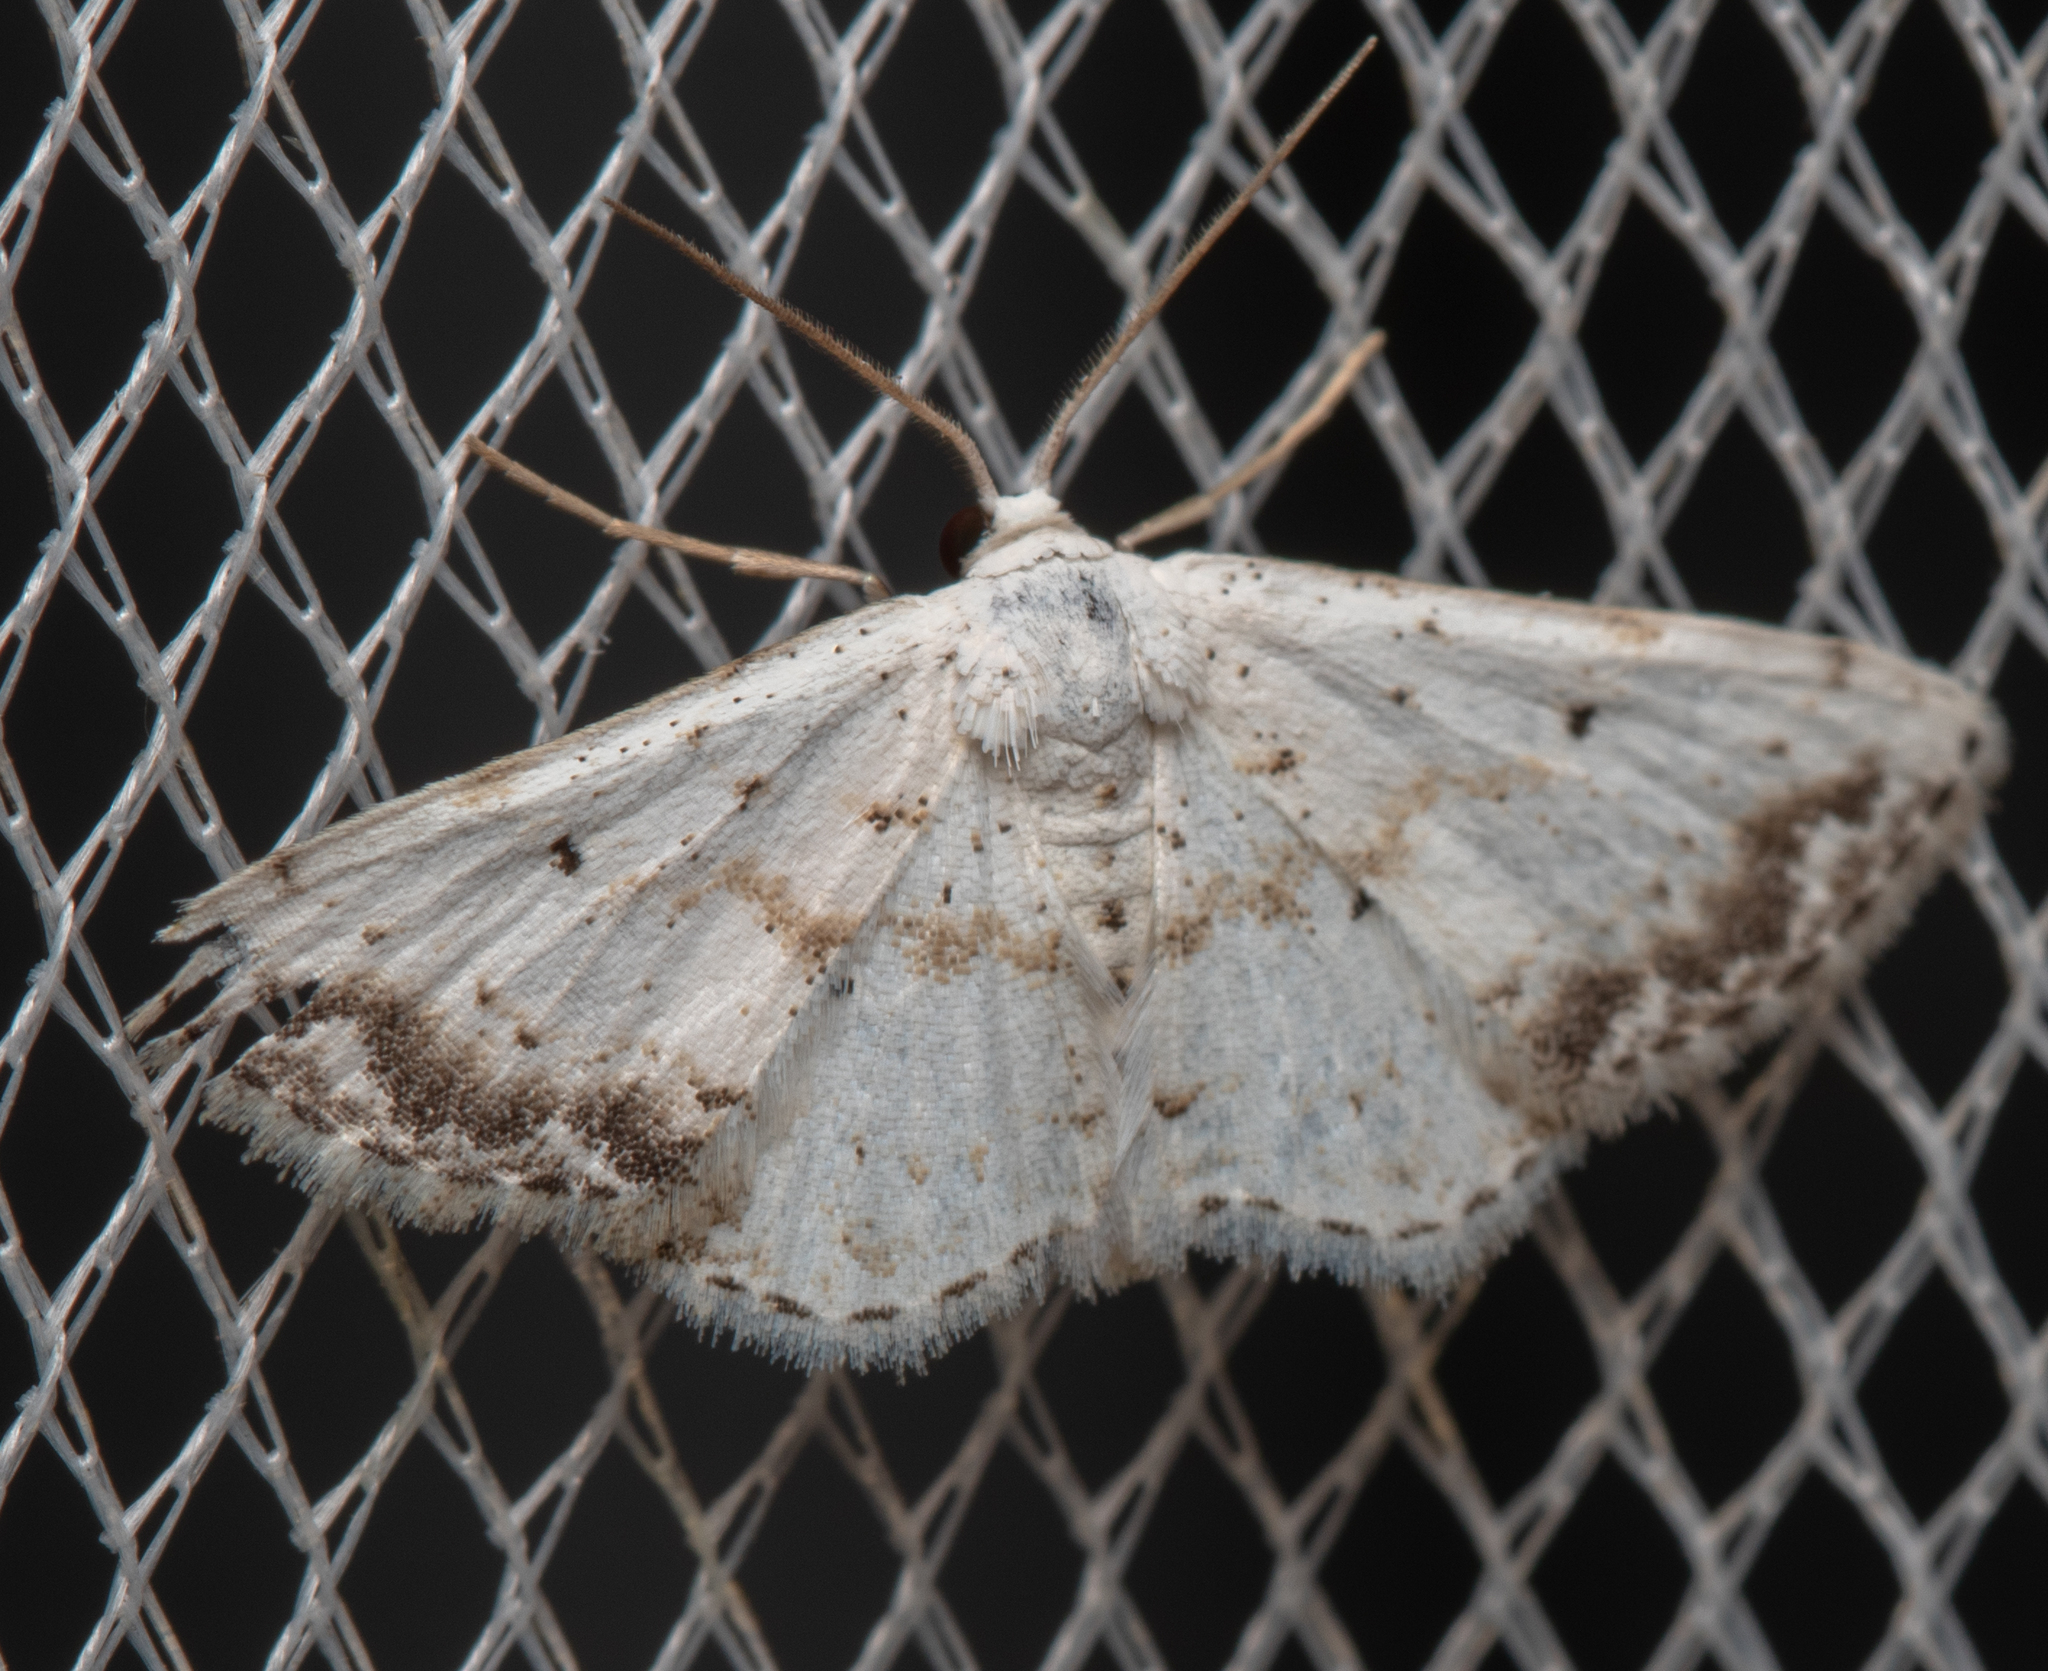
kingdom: Animalia
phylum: Arthropoda
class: Insecta
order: Lepidoptera
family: Geometridae
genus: Scopula
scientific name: Scopula innocens
